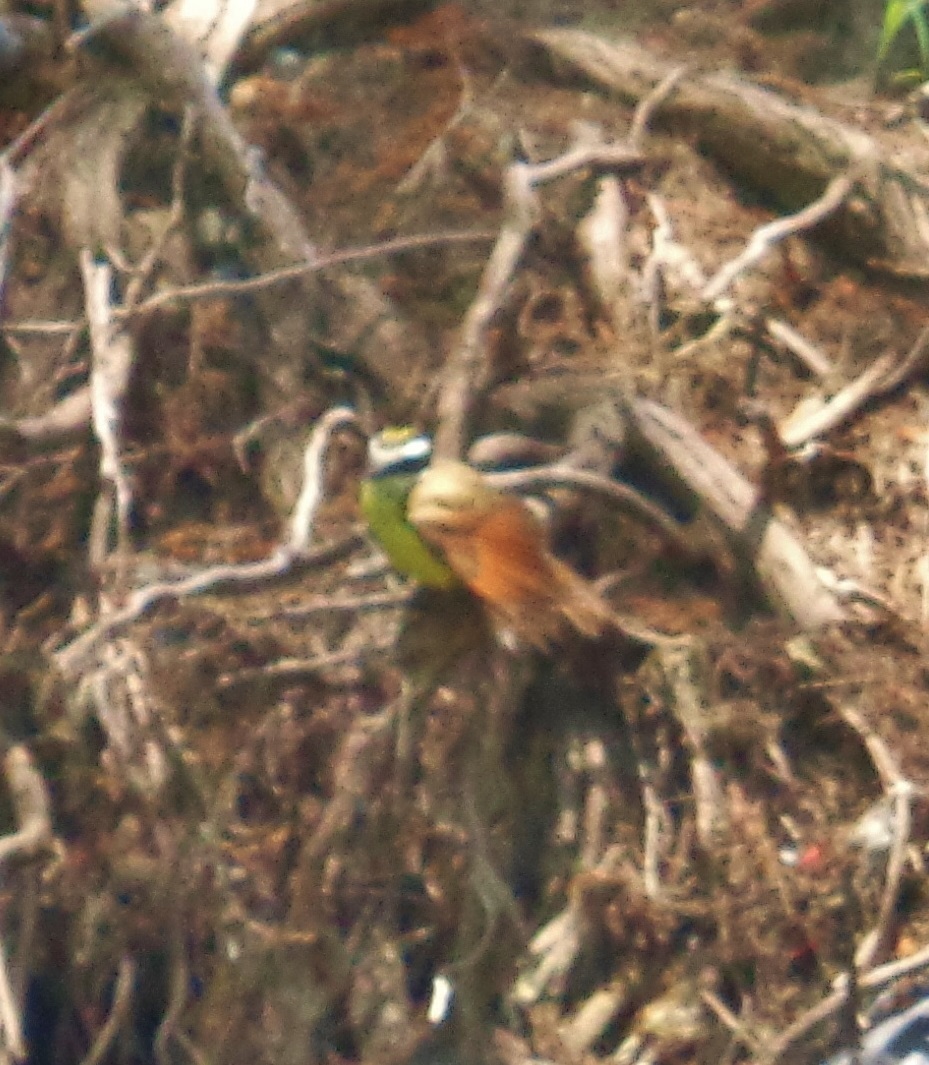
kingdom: Animalia
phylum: Chordata
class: Aves
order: Passeriformes
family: Tyrannidae
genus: Pitangus
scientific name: Pitangus sulphuratus
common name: Great kiskadee
